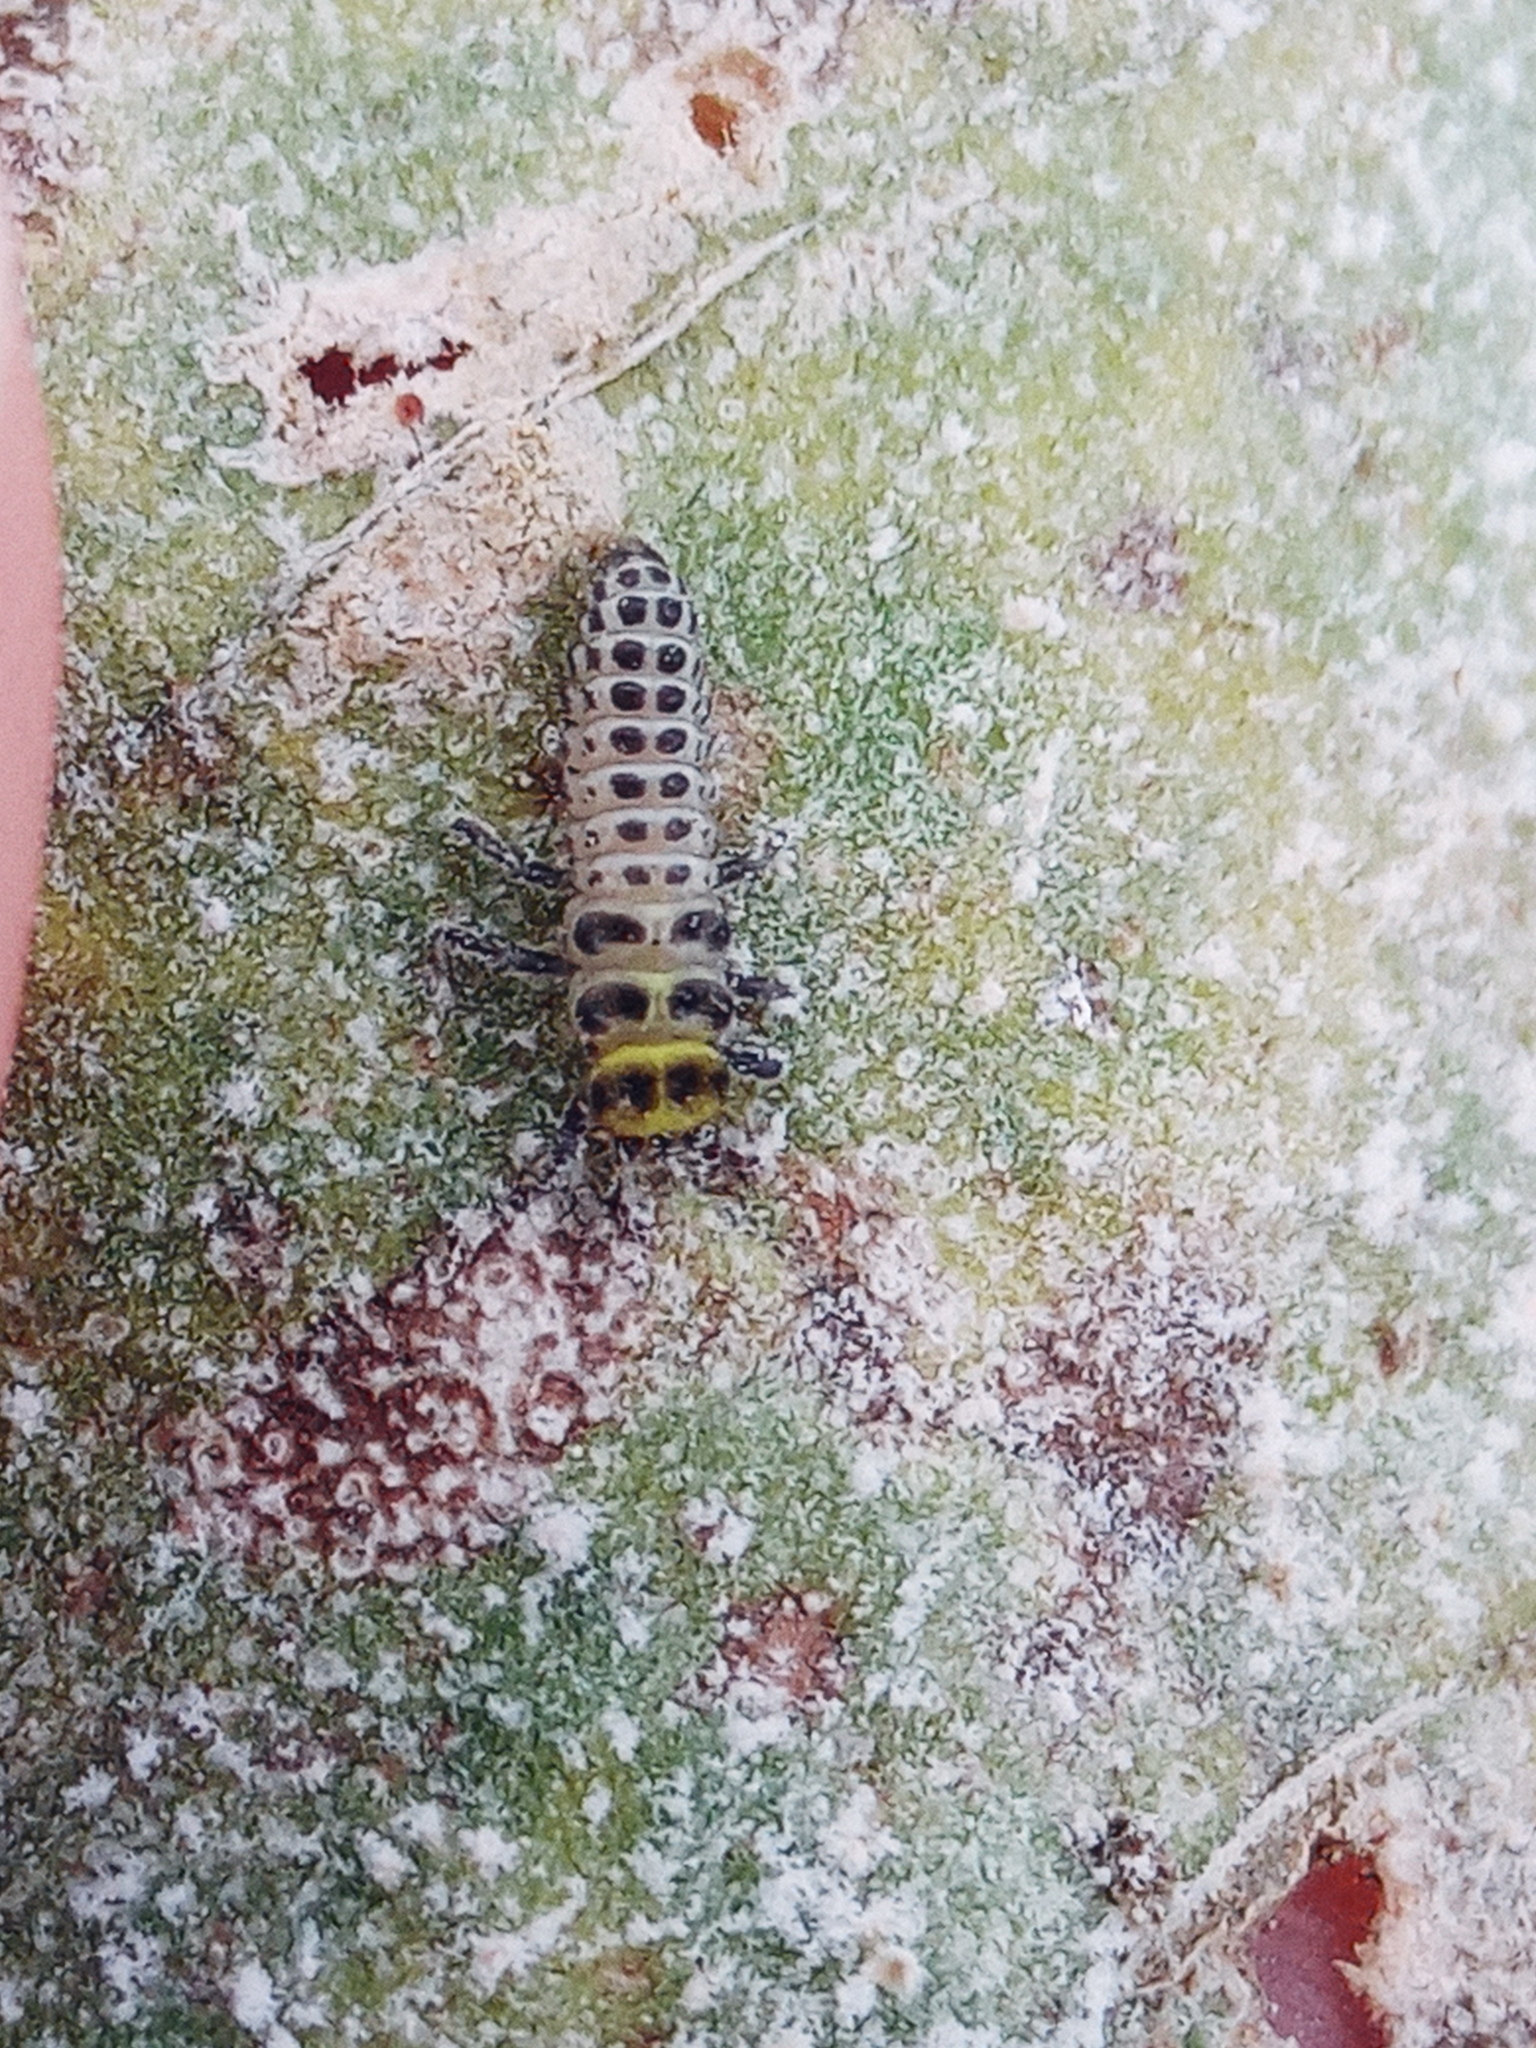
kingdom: Animalia
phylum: Arthropoda
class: Insecta
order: Coleoptera
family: Coccinellidae
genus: Illeis
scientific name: Illeis galbula
